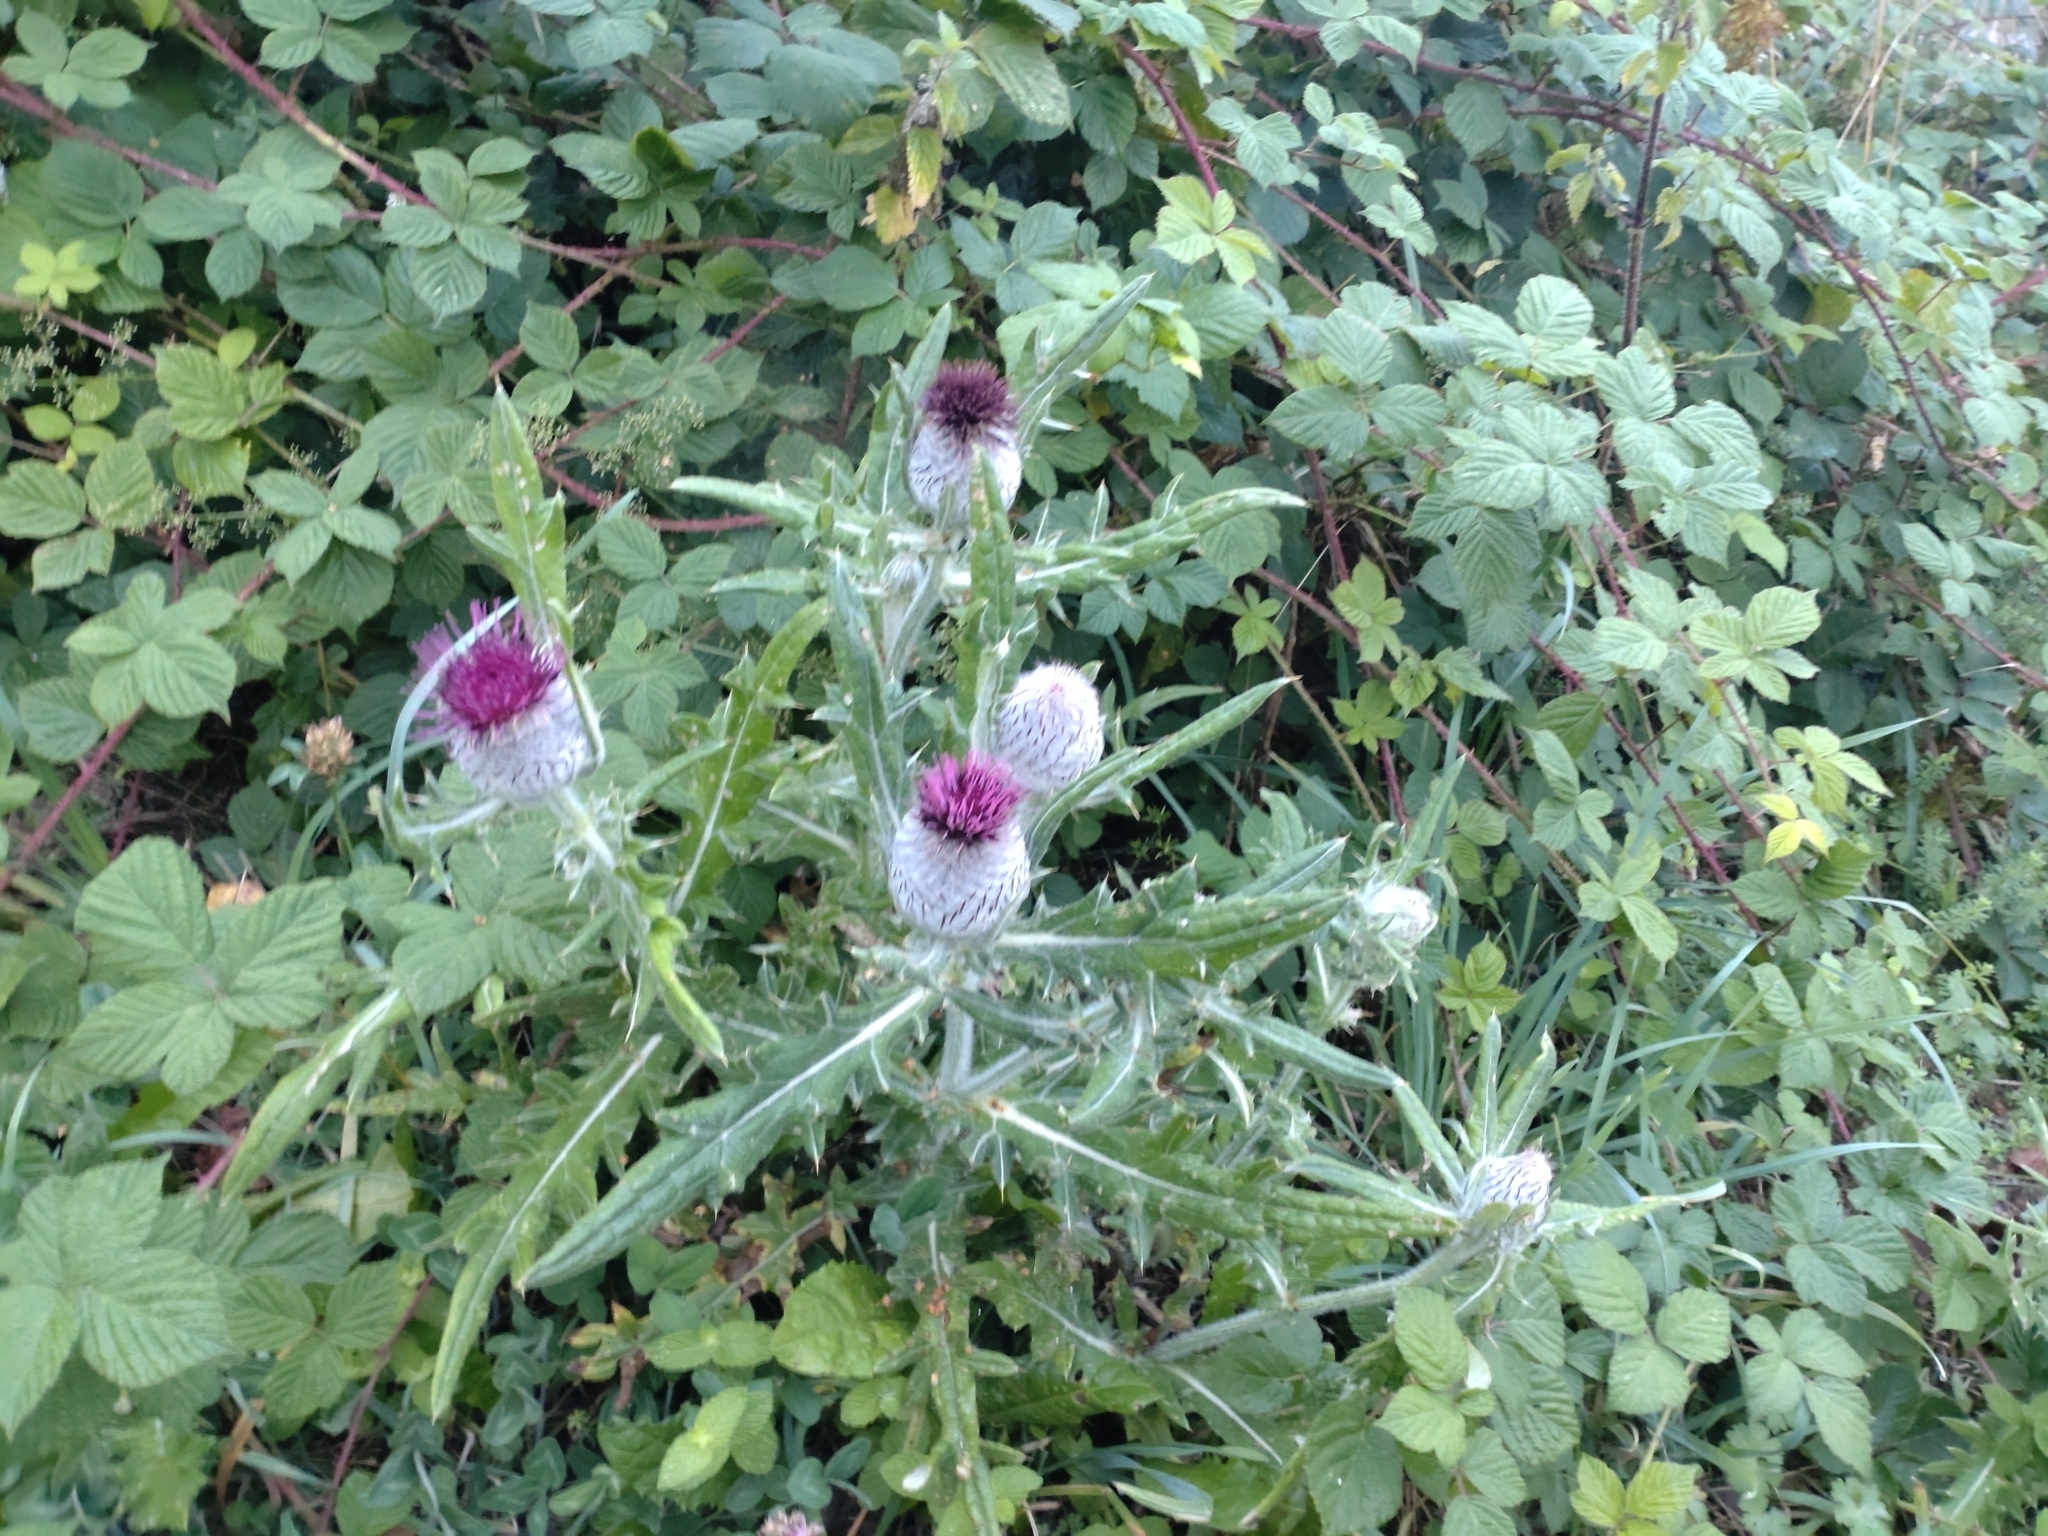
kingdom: Plantae
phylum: Tracheophyta
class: Magnoliopsida
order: Asterales
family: Asteraceae
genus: Lophiolepis
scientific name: Lophiolepis eriophora
